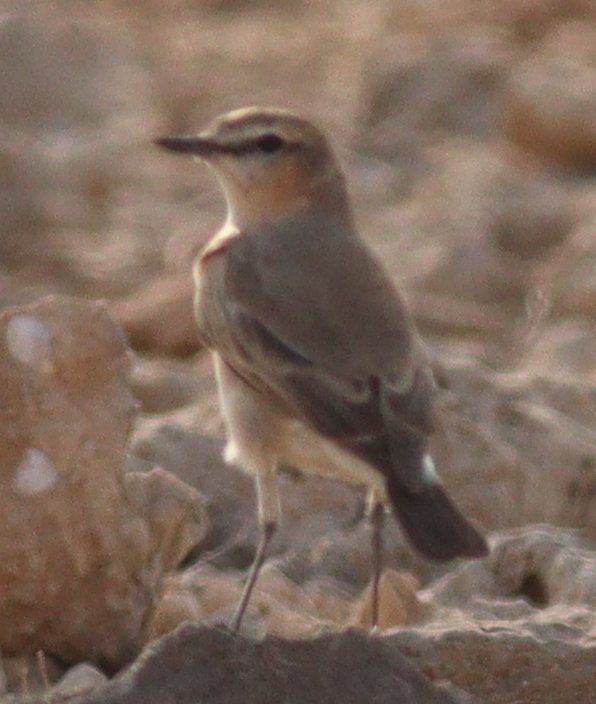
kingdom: Animalia
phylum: Chordata
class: Aves
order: Passeriformes
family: Muscicapidae
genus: Oenanthe
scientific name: Oenanthe isabellina
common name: Isabelline wheatear
